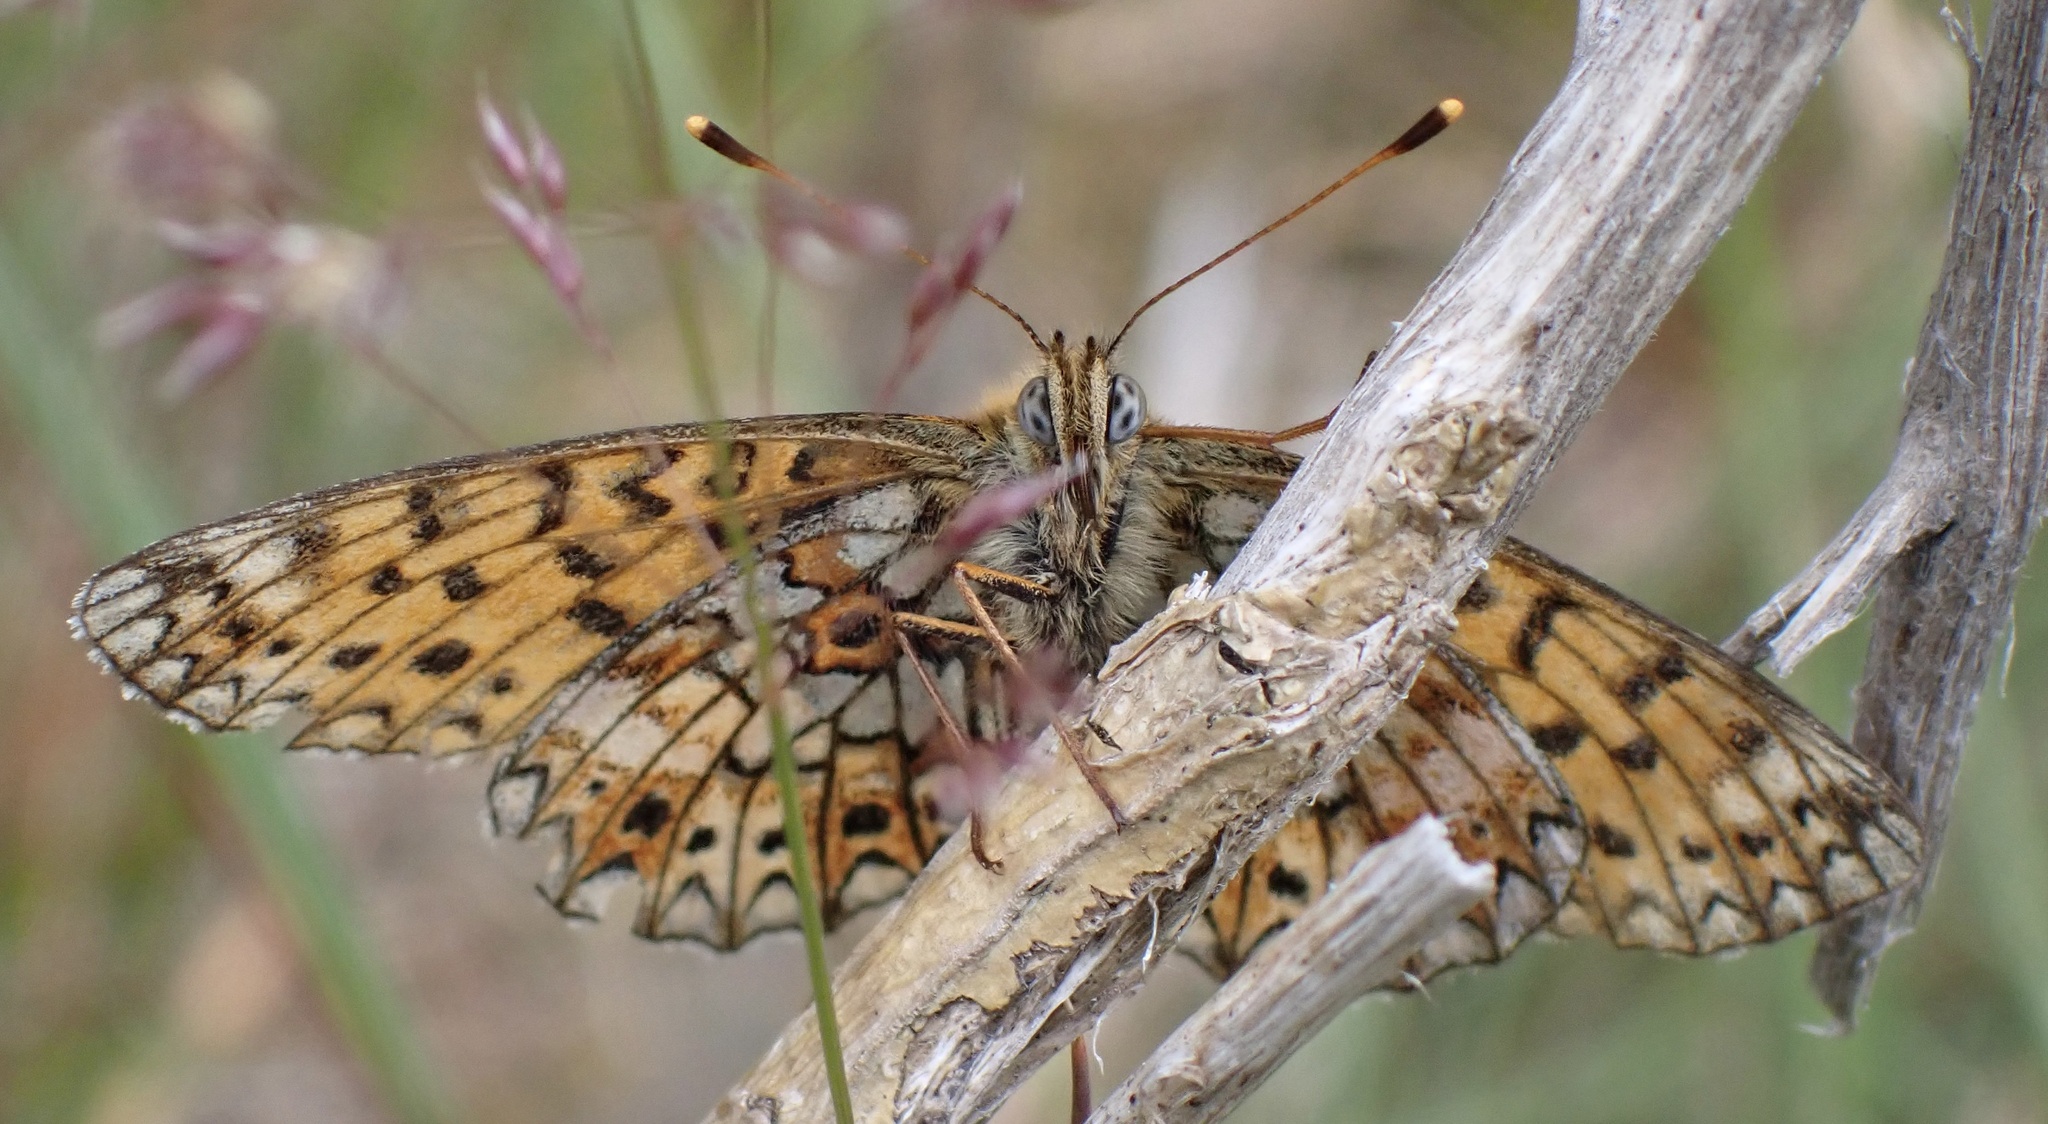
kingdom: Animalia
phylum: Arthropoda
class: Insecta
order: Lepidoptera
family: Nymphalidae
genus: Boloria
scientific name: Boloria selene
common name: Small pearl-bordered fritillary
